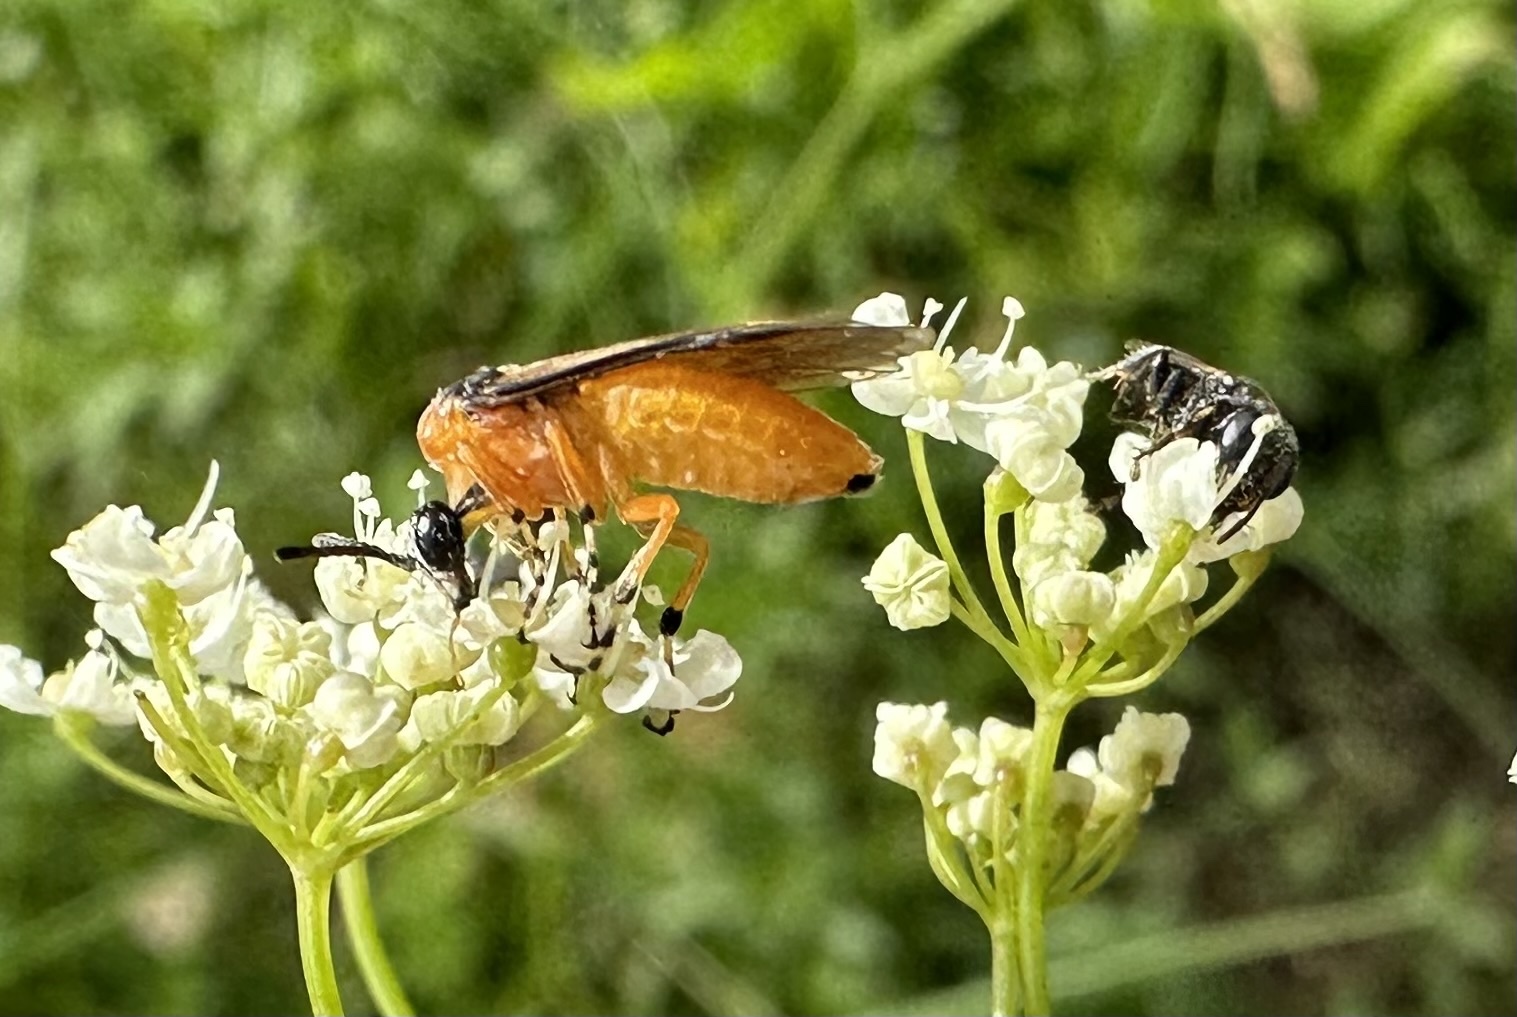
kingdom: Animalia
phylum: Arthropoda
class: Insecta
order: Hymenoptera
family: Tenthredinidae
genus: Athalia
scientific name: Athalia rosae
